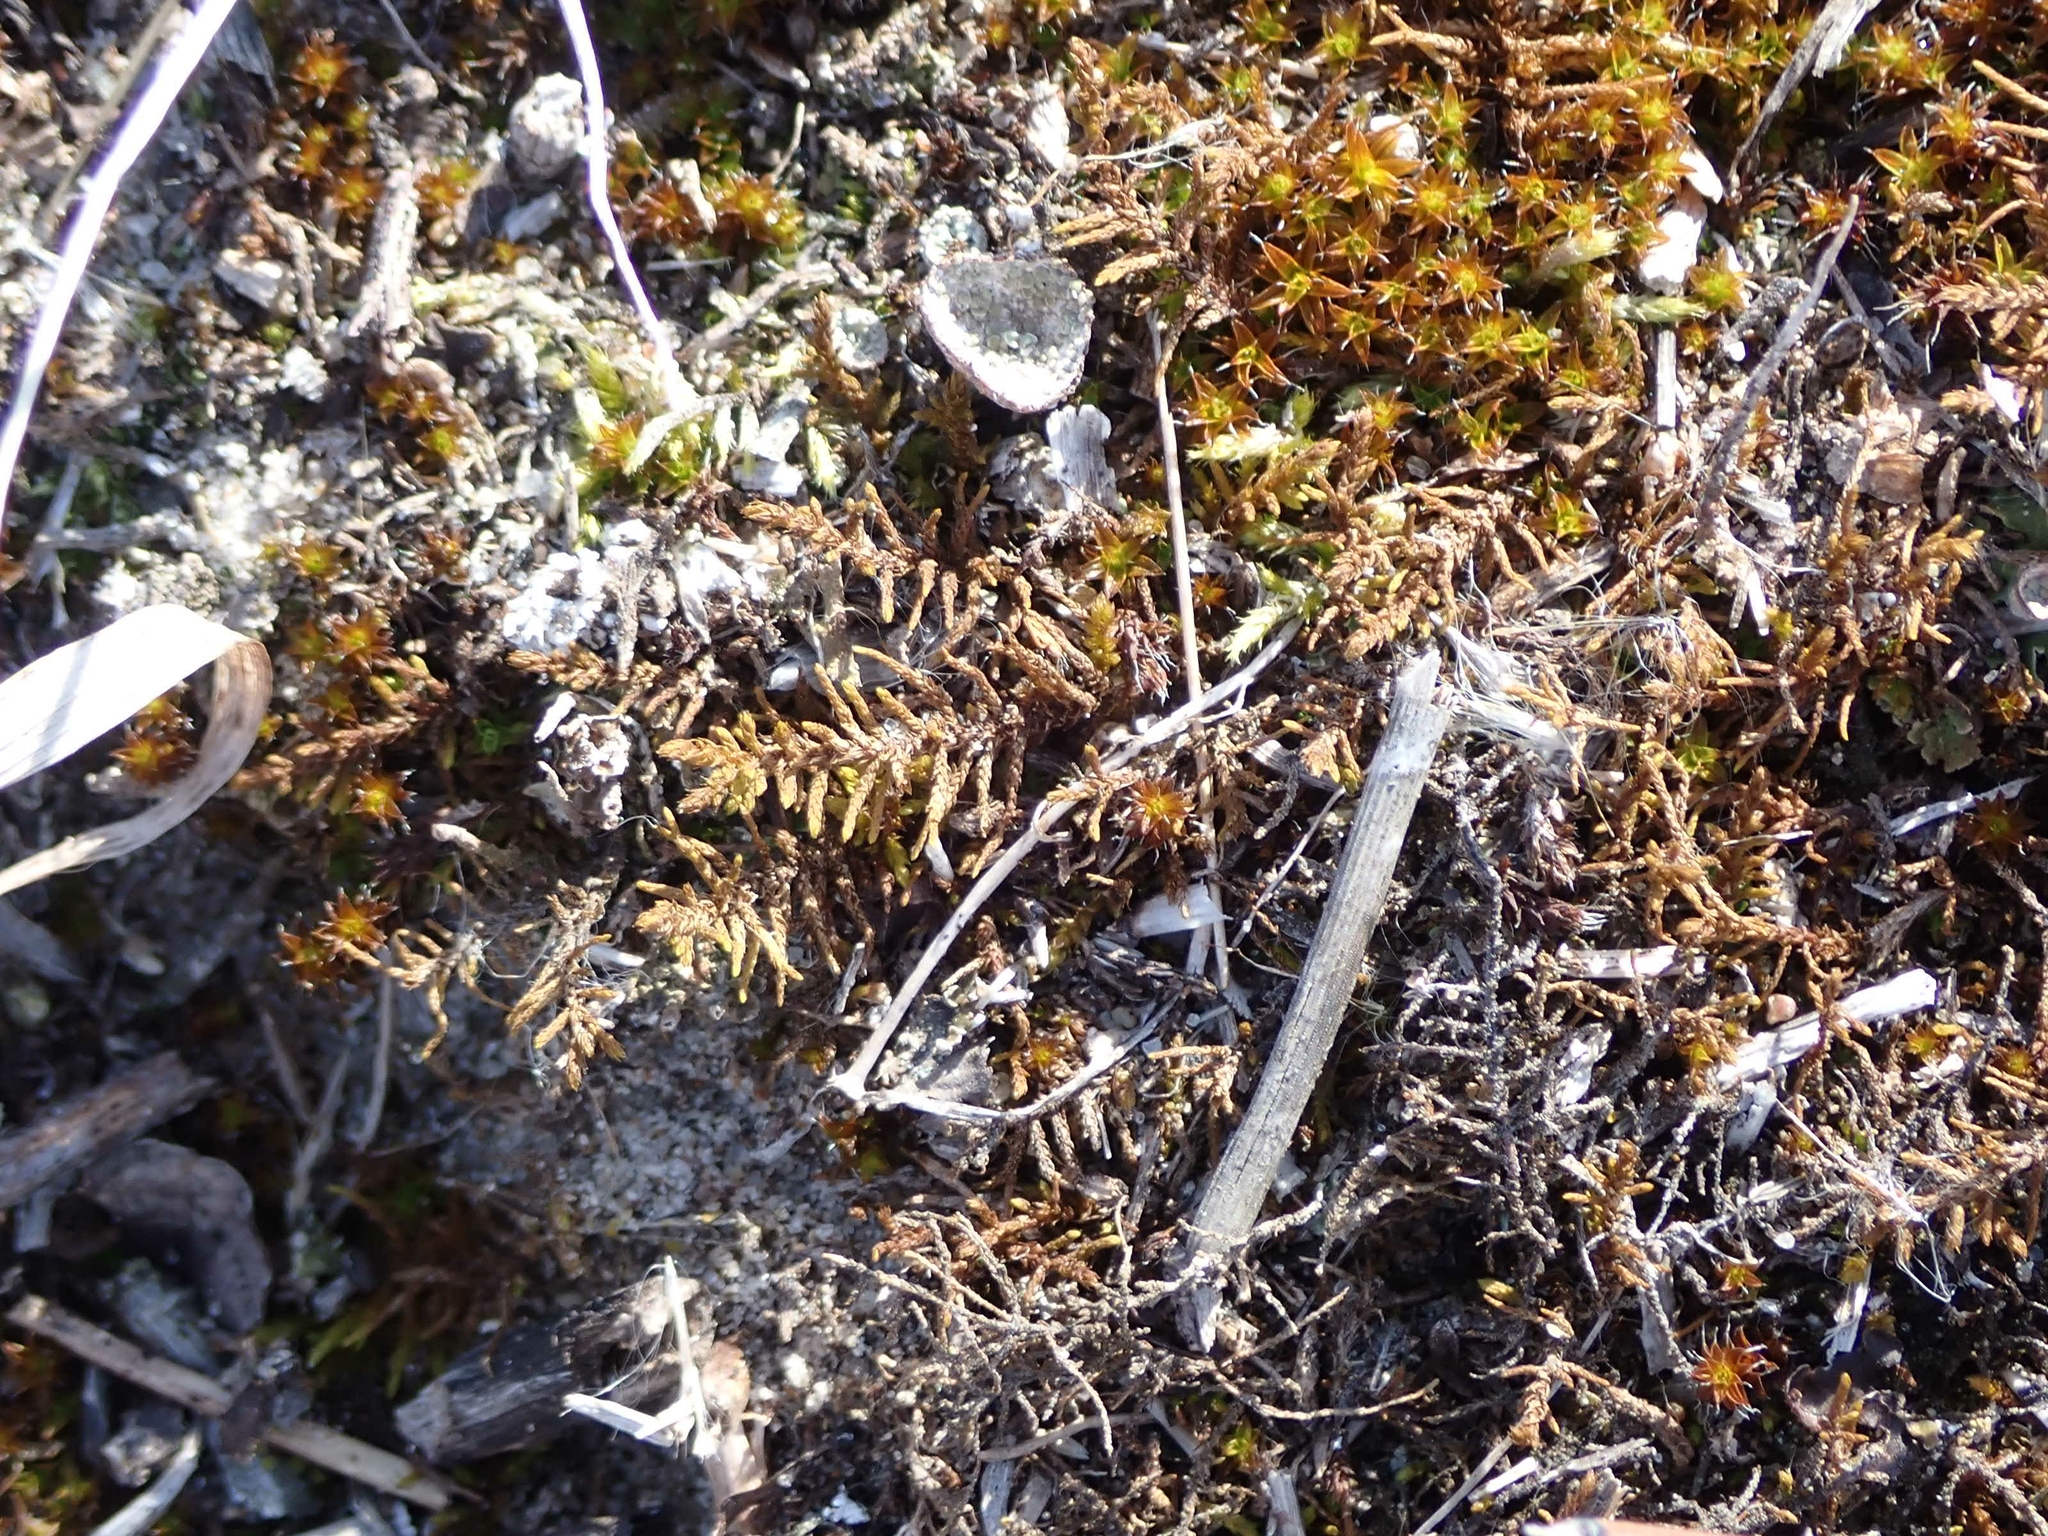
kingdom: Plantae
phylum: Bryophyta
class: Bryopsida
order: Hypnales
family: Thuidiaceae
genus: Abietinella
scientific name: Abietinella abietina
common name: Wiry fern moss
